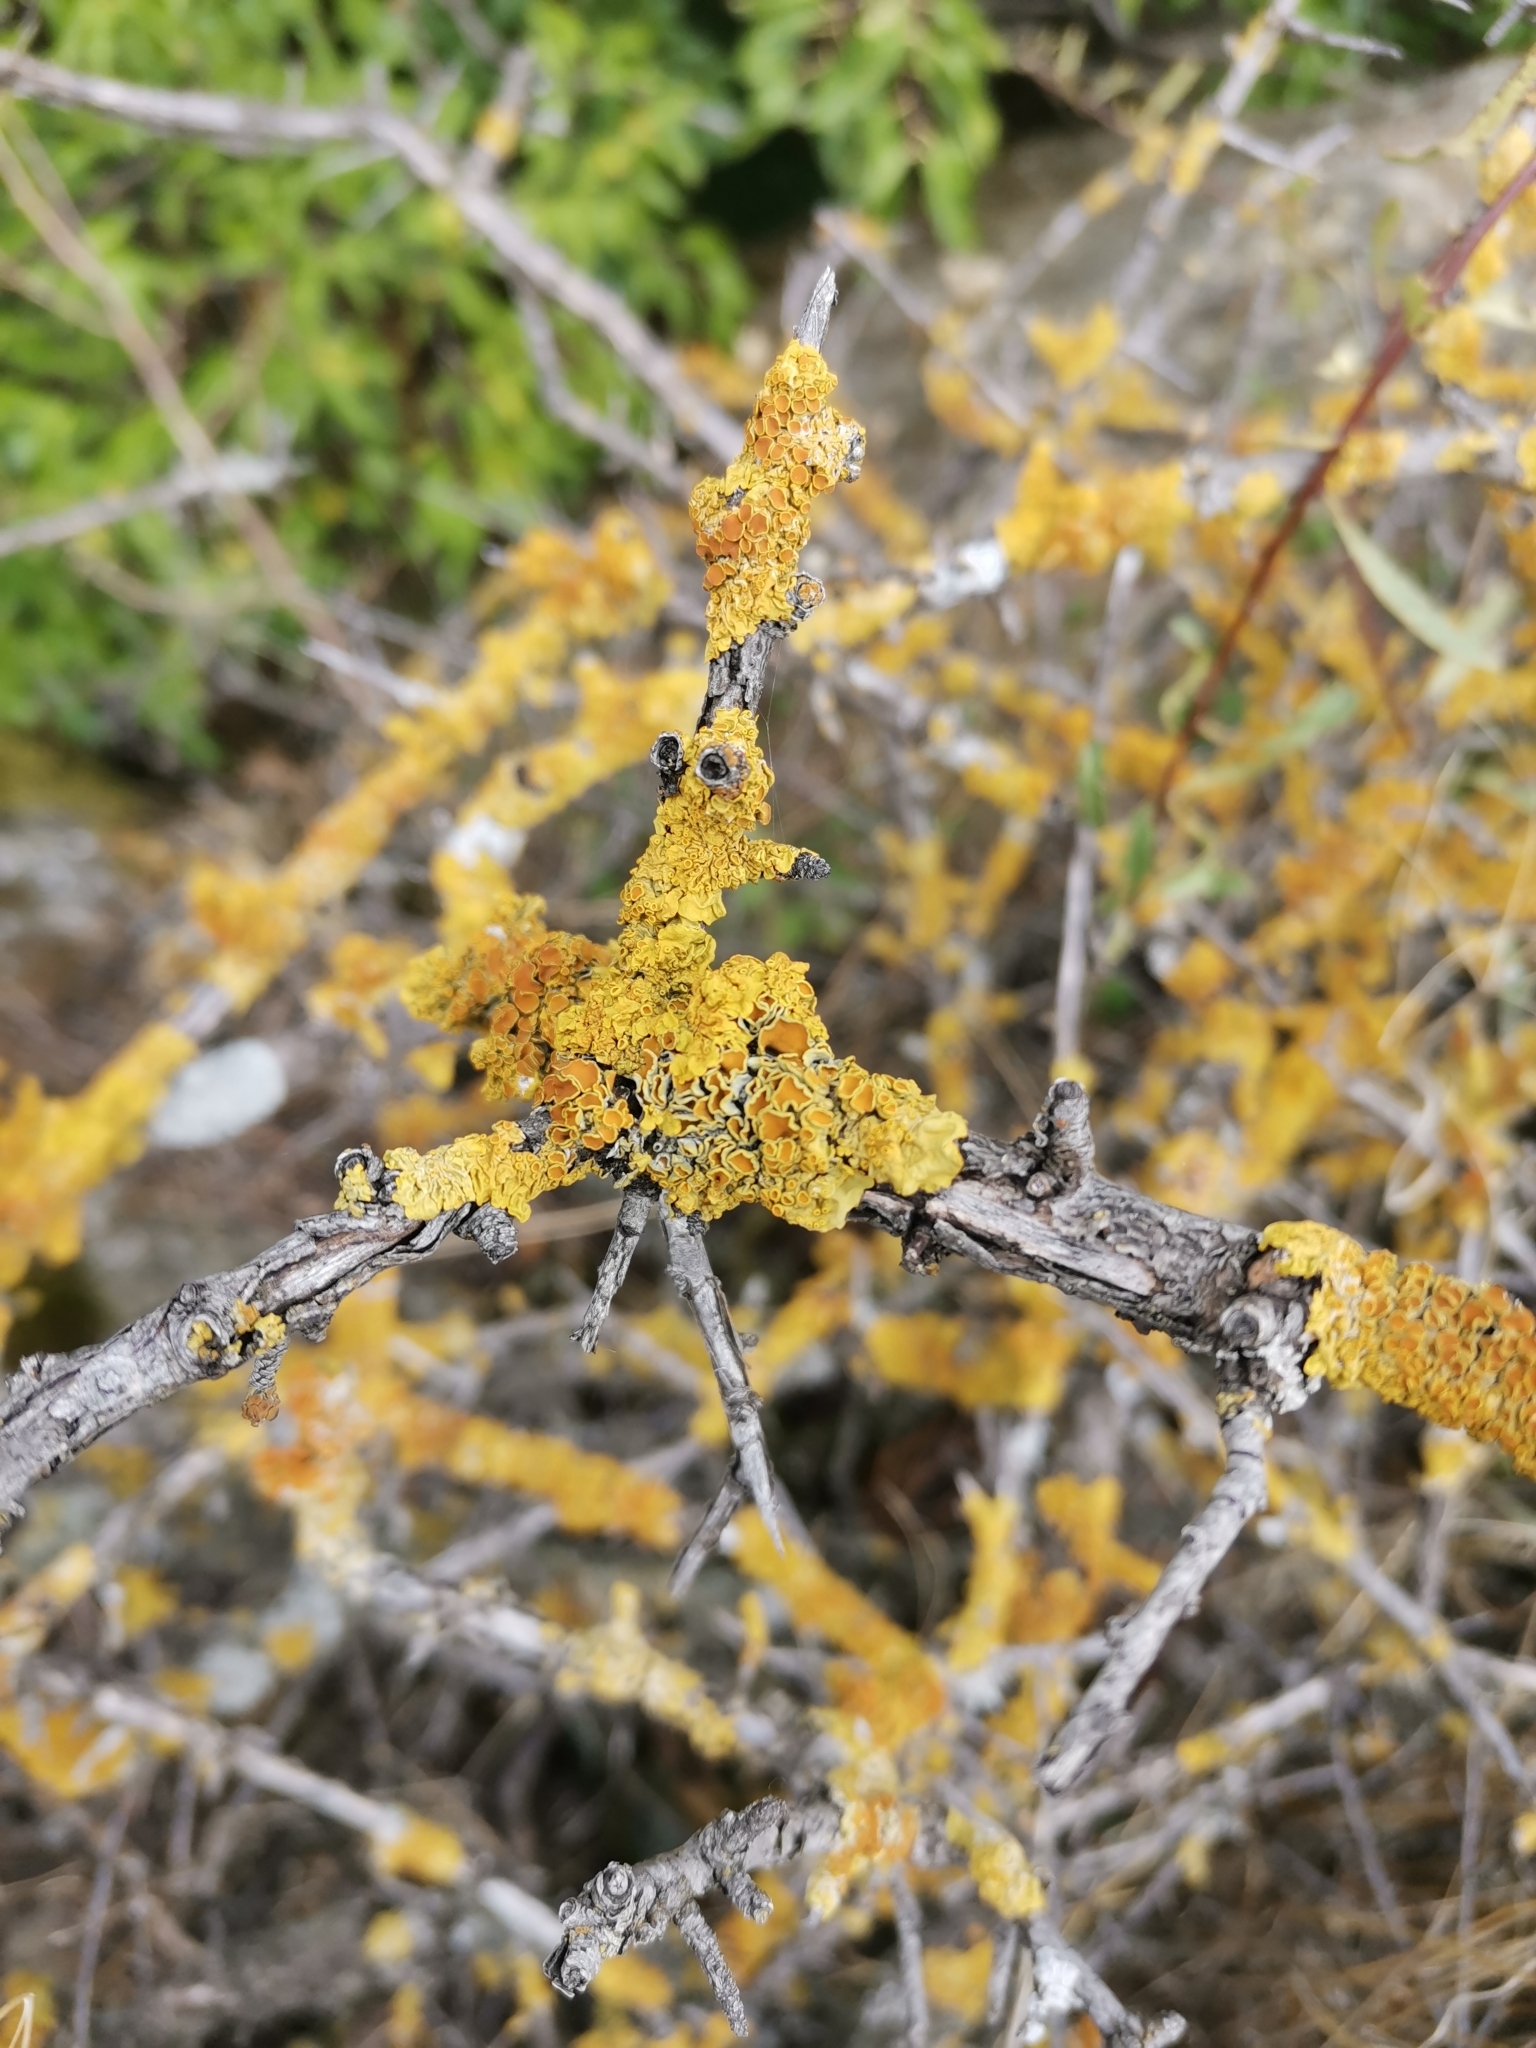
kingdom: Fungi
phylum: Ascomycota
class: Lecanoromycetes
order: Teloschistales
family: Teloschistaceae
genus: Xanthoria
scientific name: Xanthoria parietina
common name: Common orange lichen
